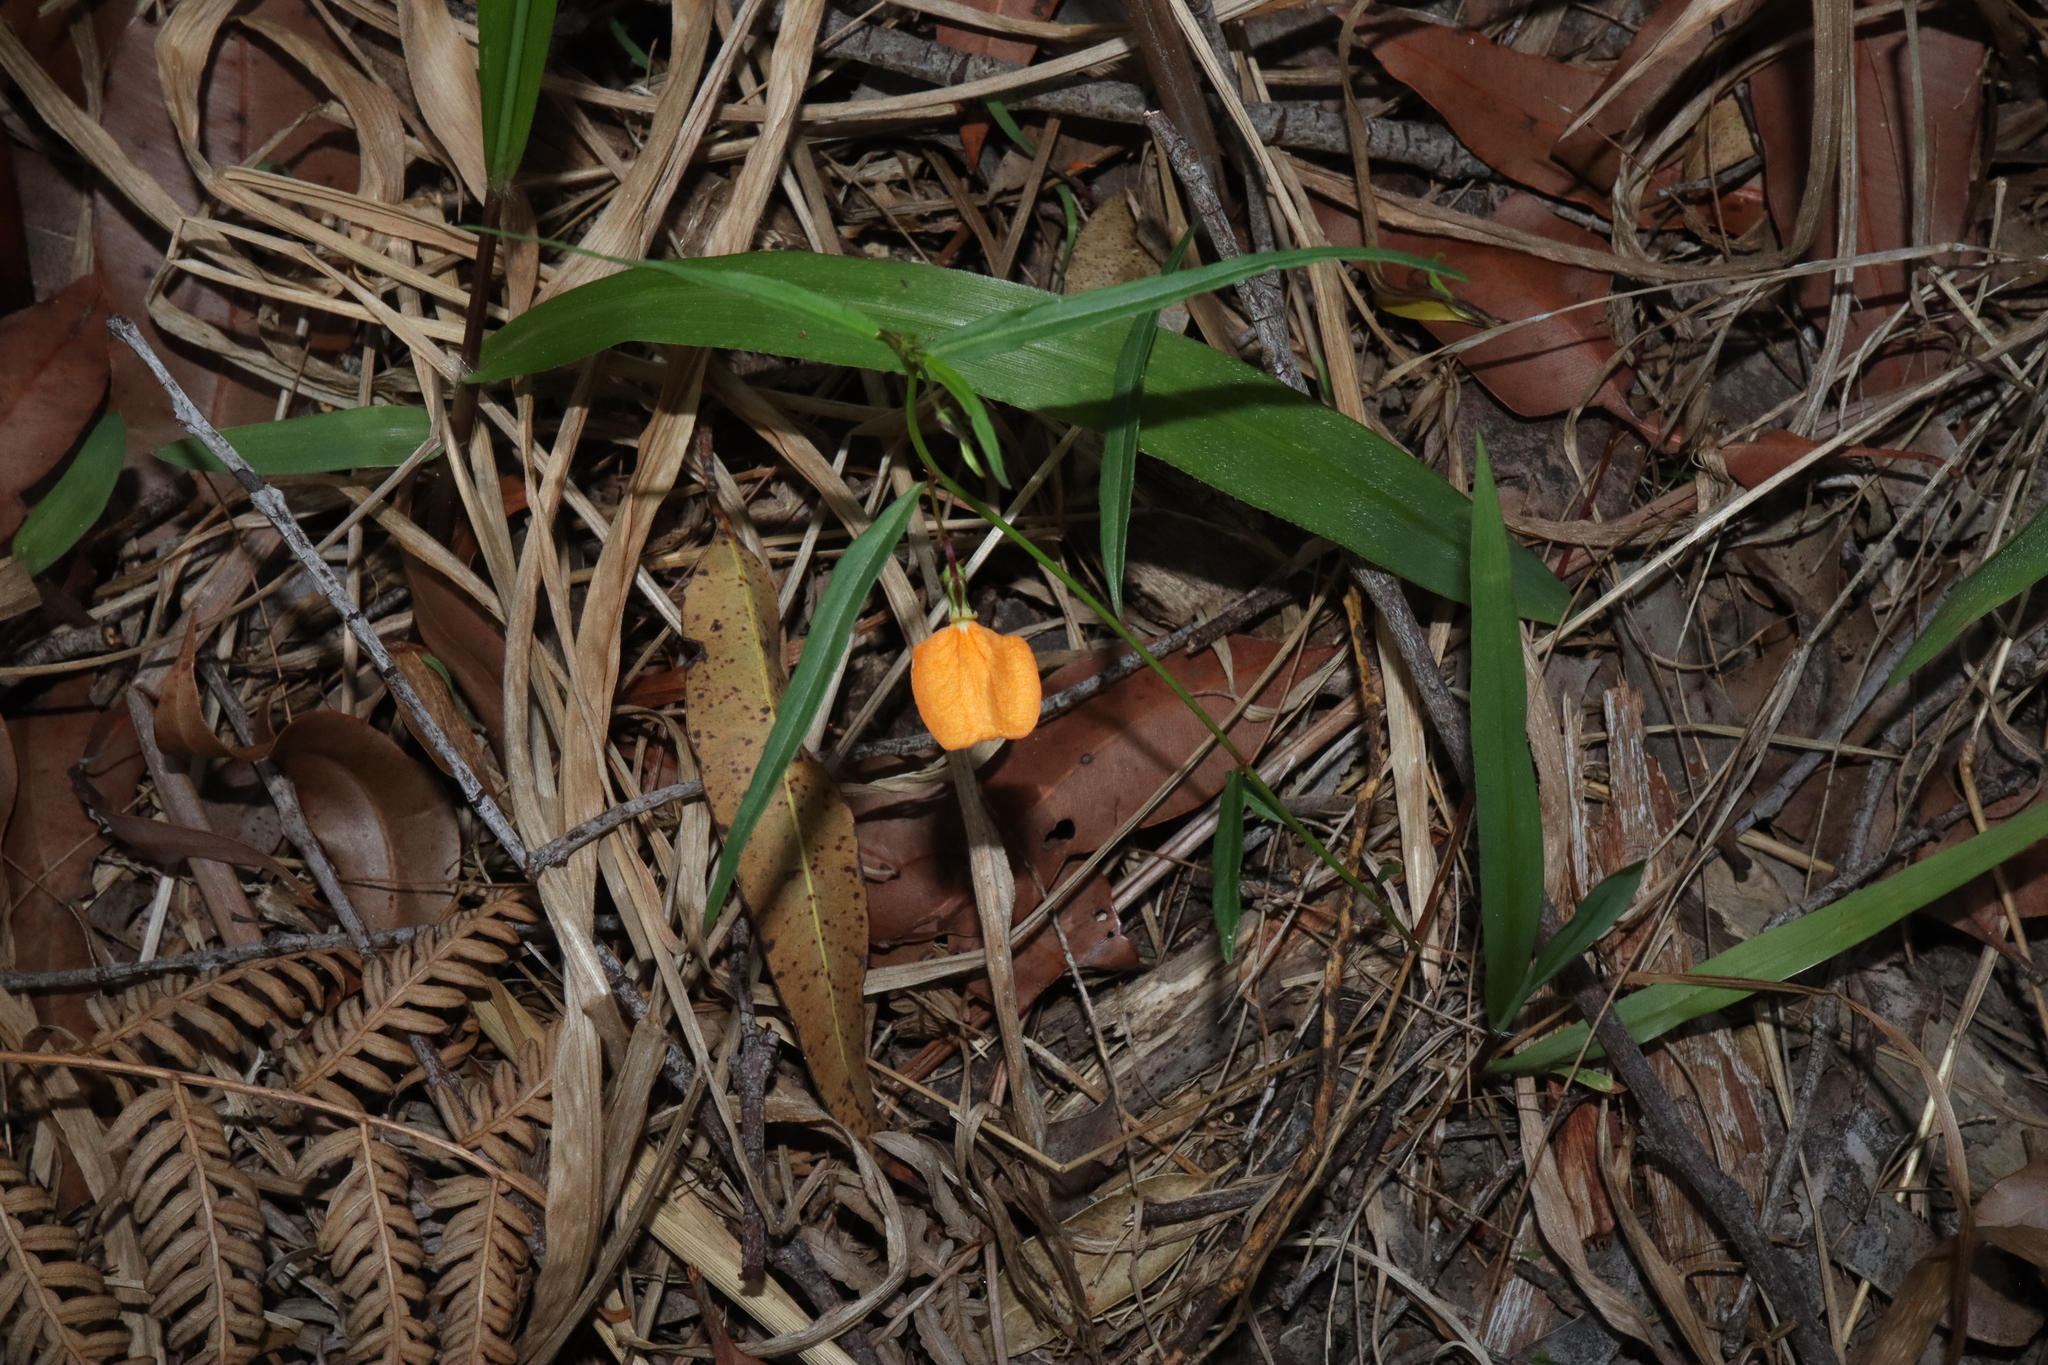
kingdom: Plantae
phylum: Tracheophyta
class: Magnoliopsida
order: Malpighiales
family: Violaceae
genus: Pigea
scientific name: Pigea stellarioides
